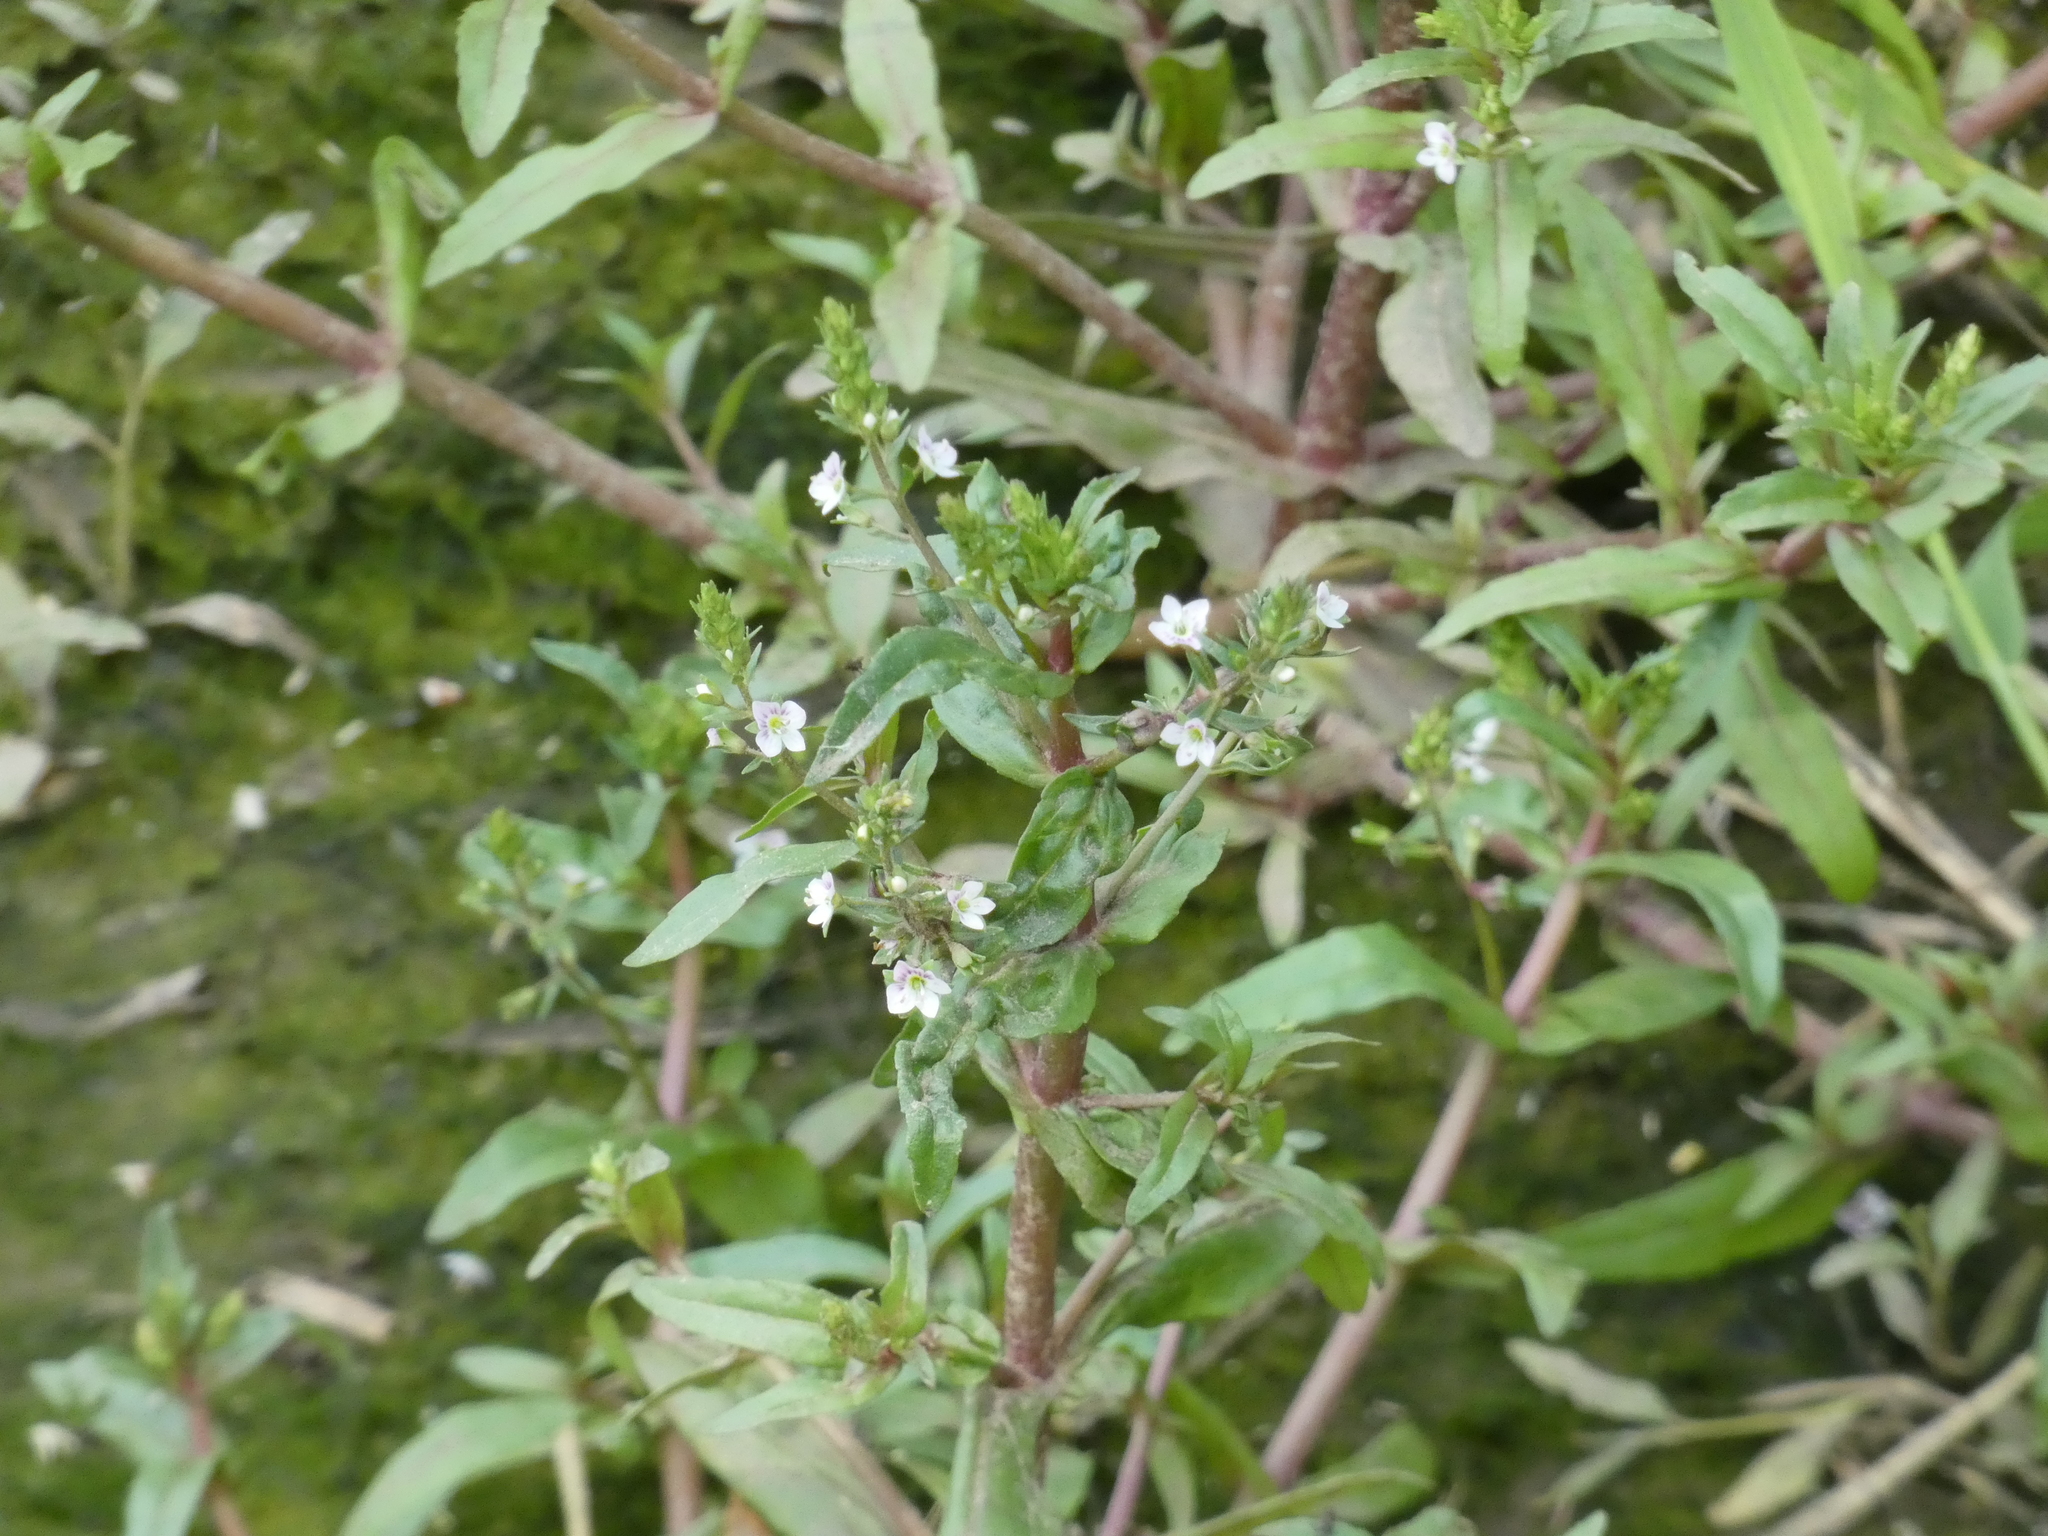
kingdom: Plantae
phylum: Tracheophyta
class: Magnoliopsida
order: Lamiales
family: Plantaginaceae
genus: Veronica
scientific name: Veronica catenata
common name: Pink water-speedwell
